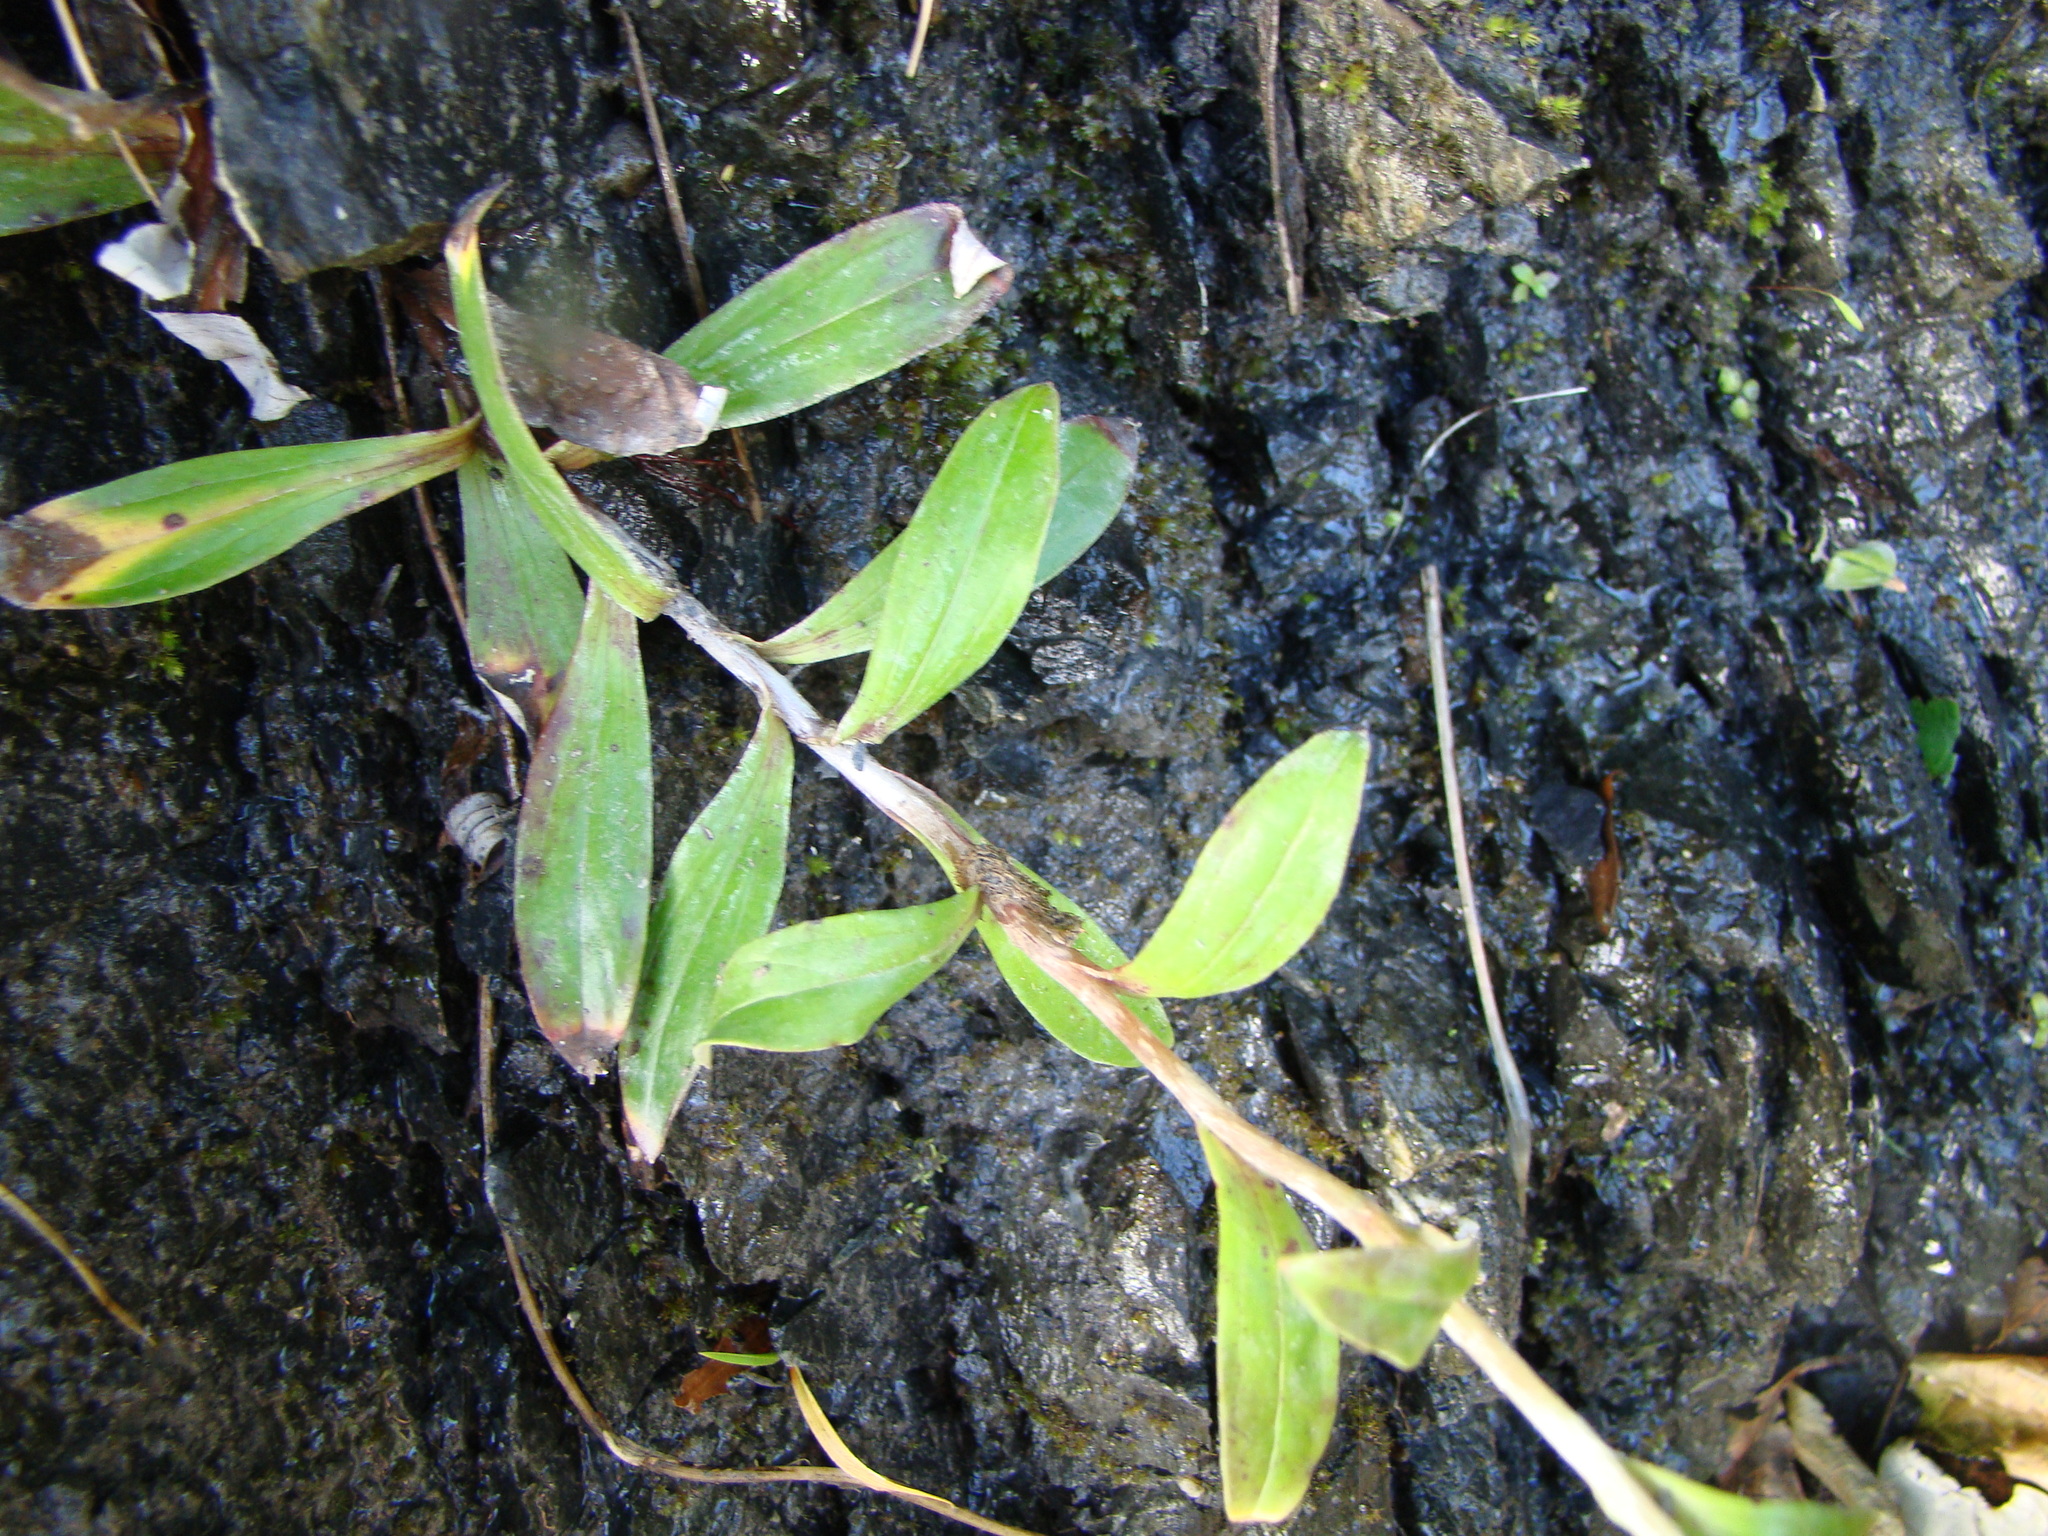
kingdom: Plantae
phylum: Tracheophyta
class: Magnoliopsida
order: Asterales
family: Asteraceae
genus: Anaphalioides
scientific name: Anaphalioides trinervis
